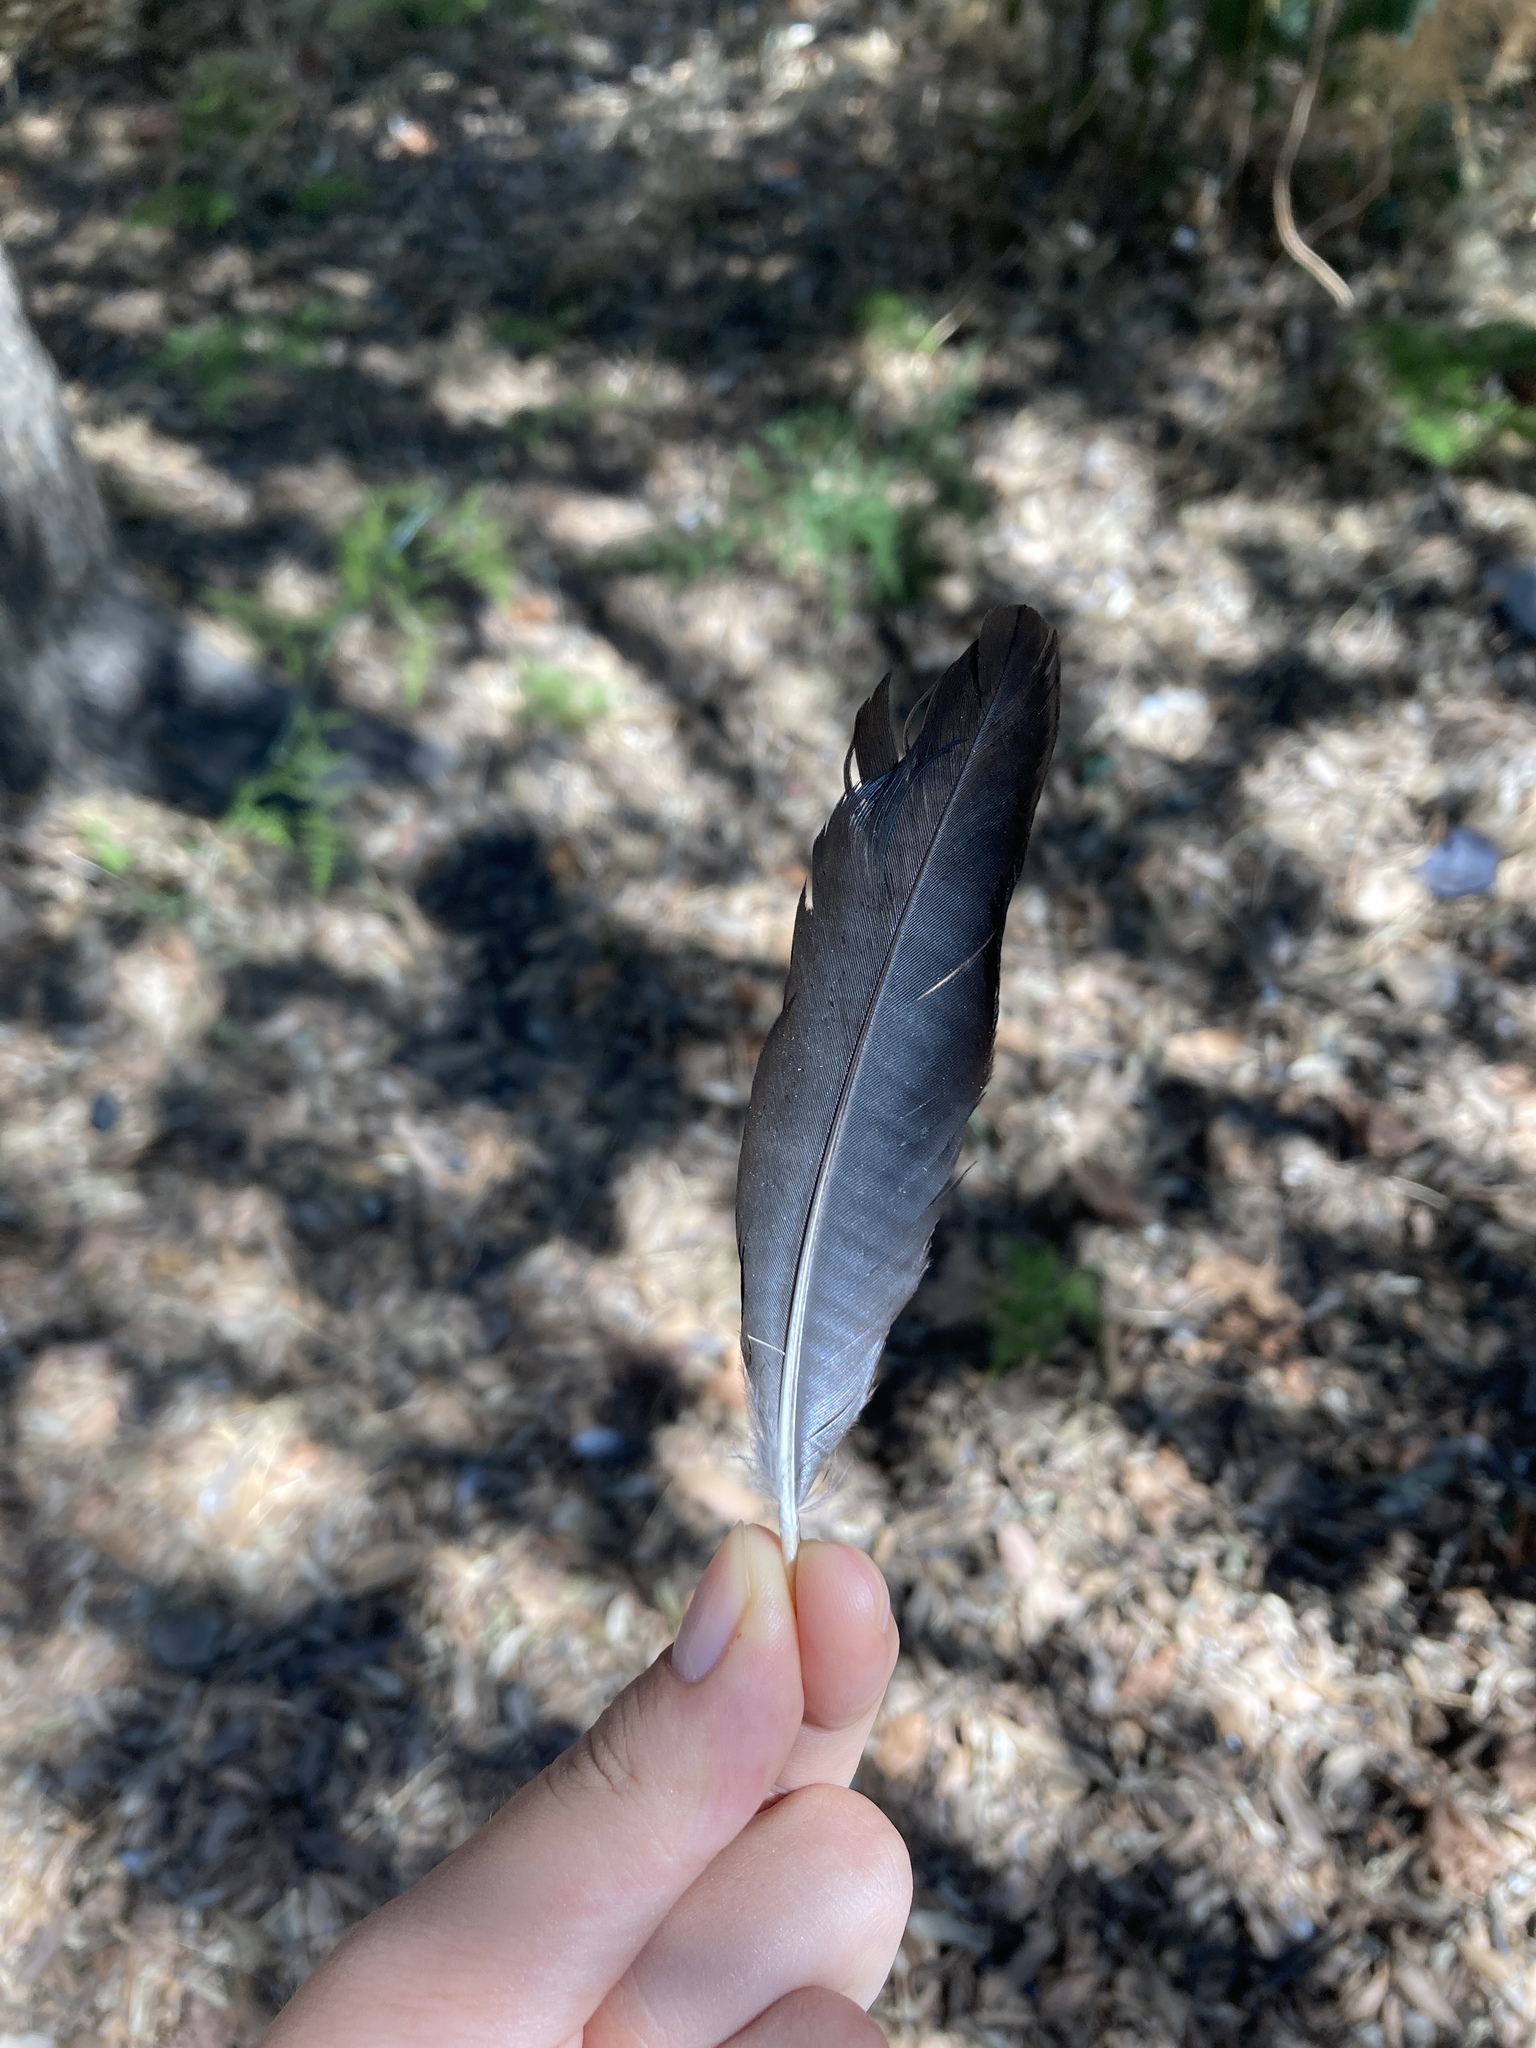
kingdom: Animalia
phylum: Chordata
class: Aves
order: Passeriformes
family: Corvidae
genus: Pica
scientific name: Pica pica
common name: Eurasian magpie
